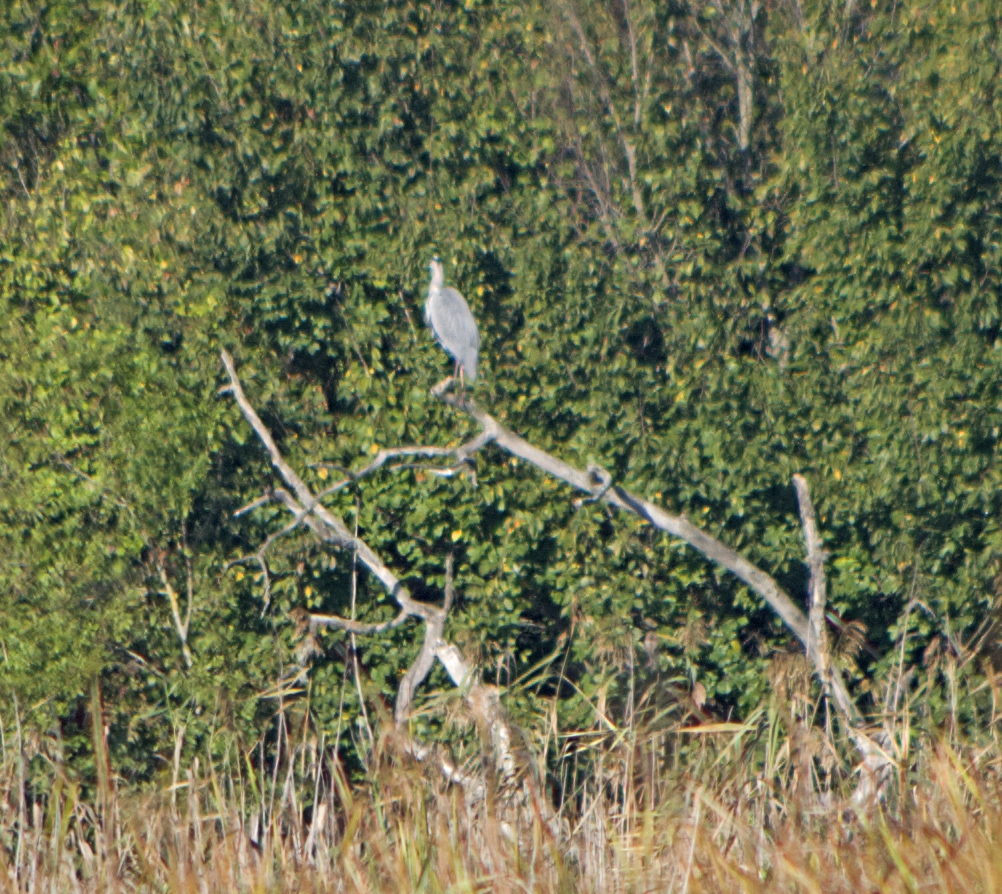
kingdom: Animalia
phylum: Chordata
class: Aves
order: Pelecaniformes
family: Ardeidae
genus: Ardea
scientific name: Ardea cinerea
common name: Grey heron
